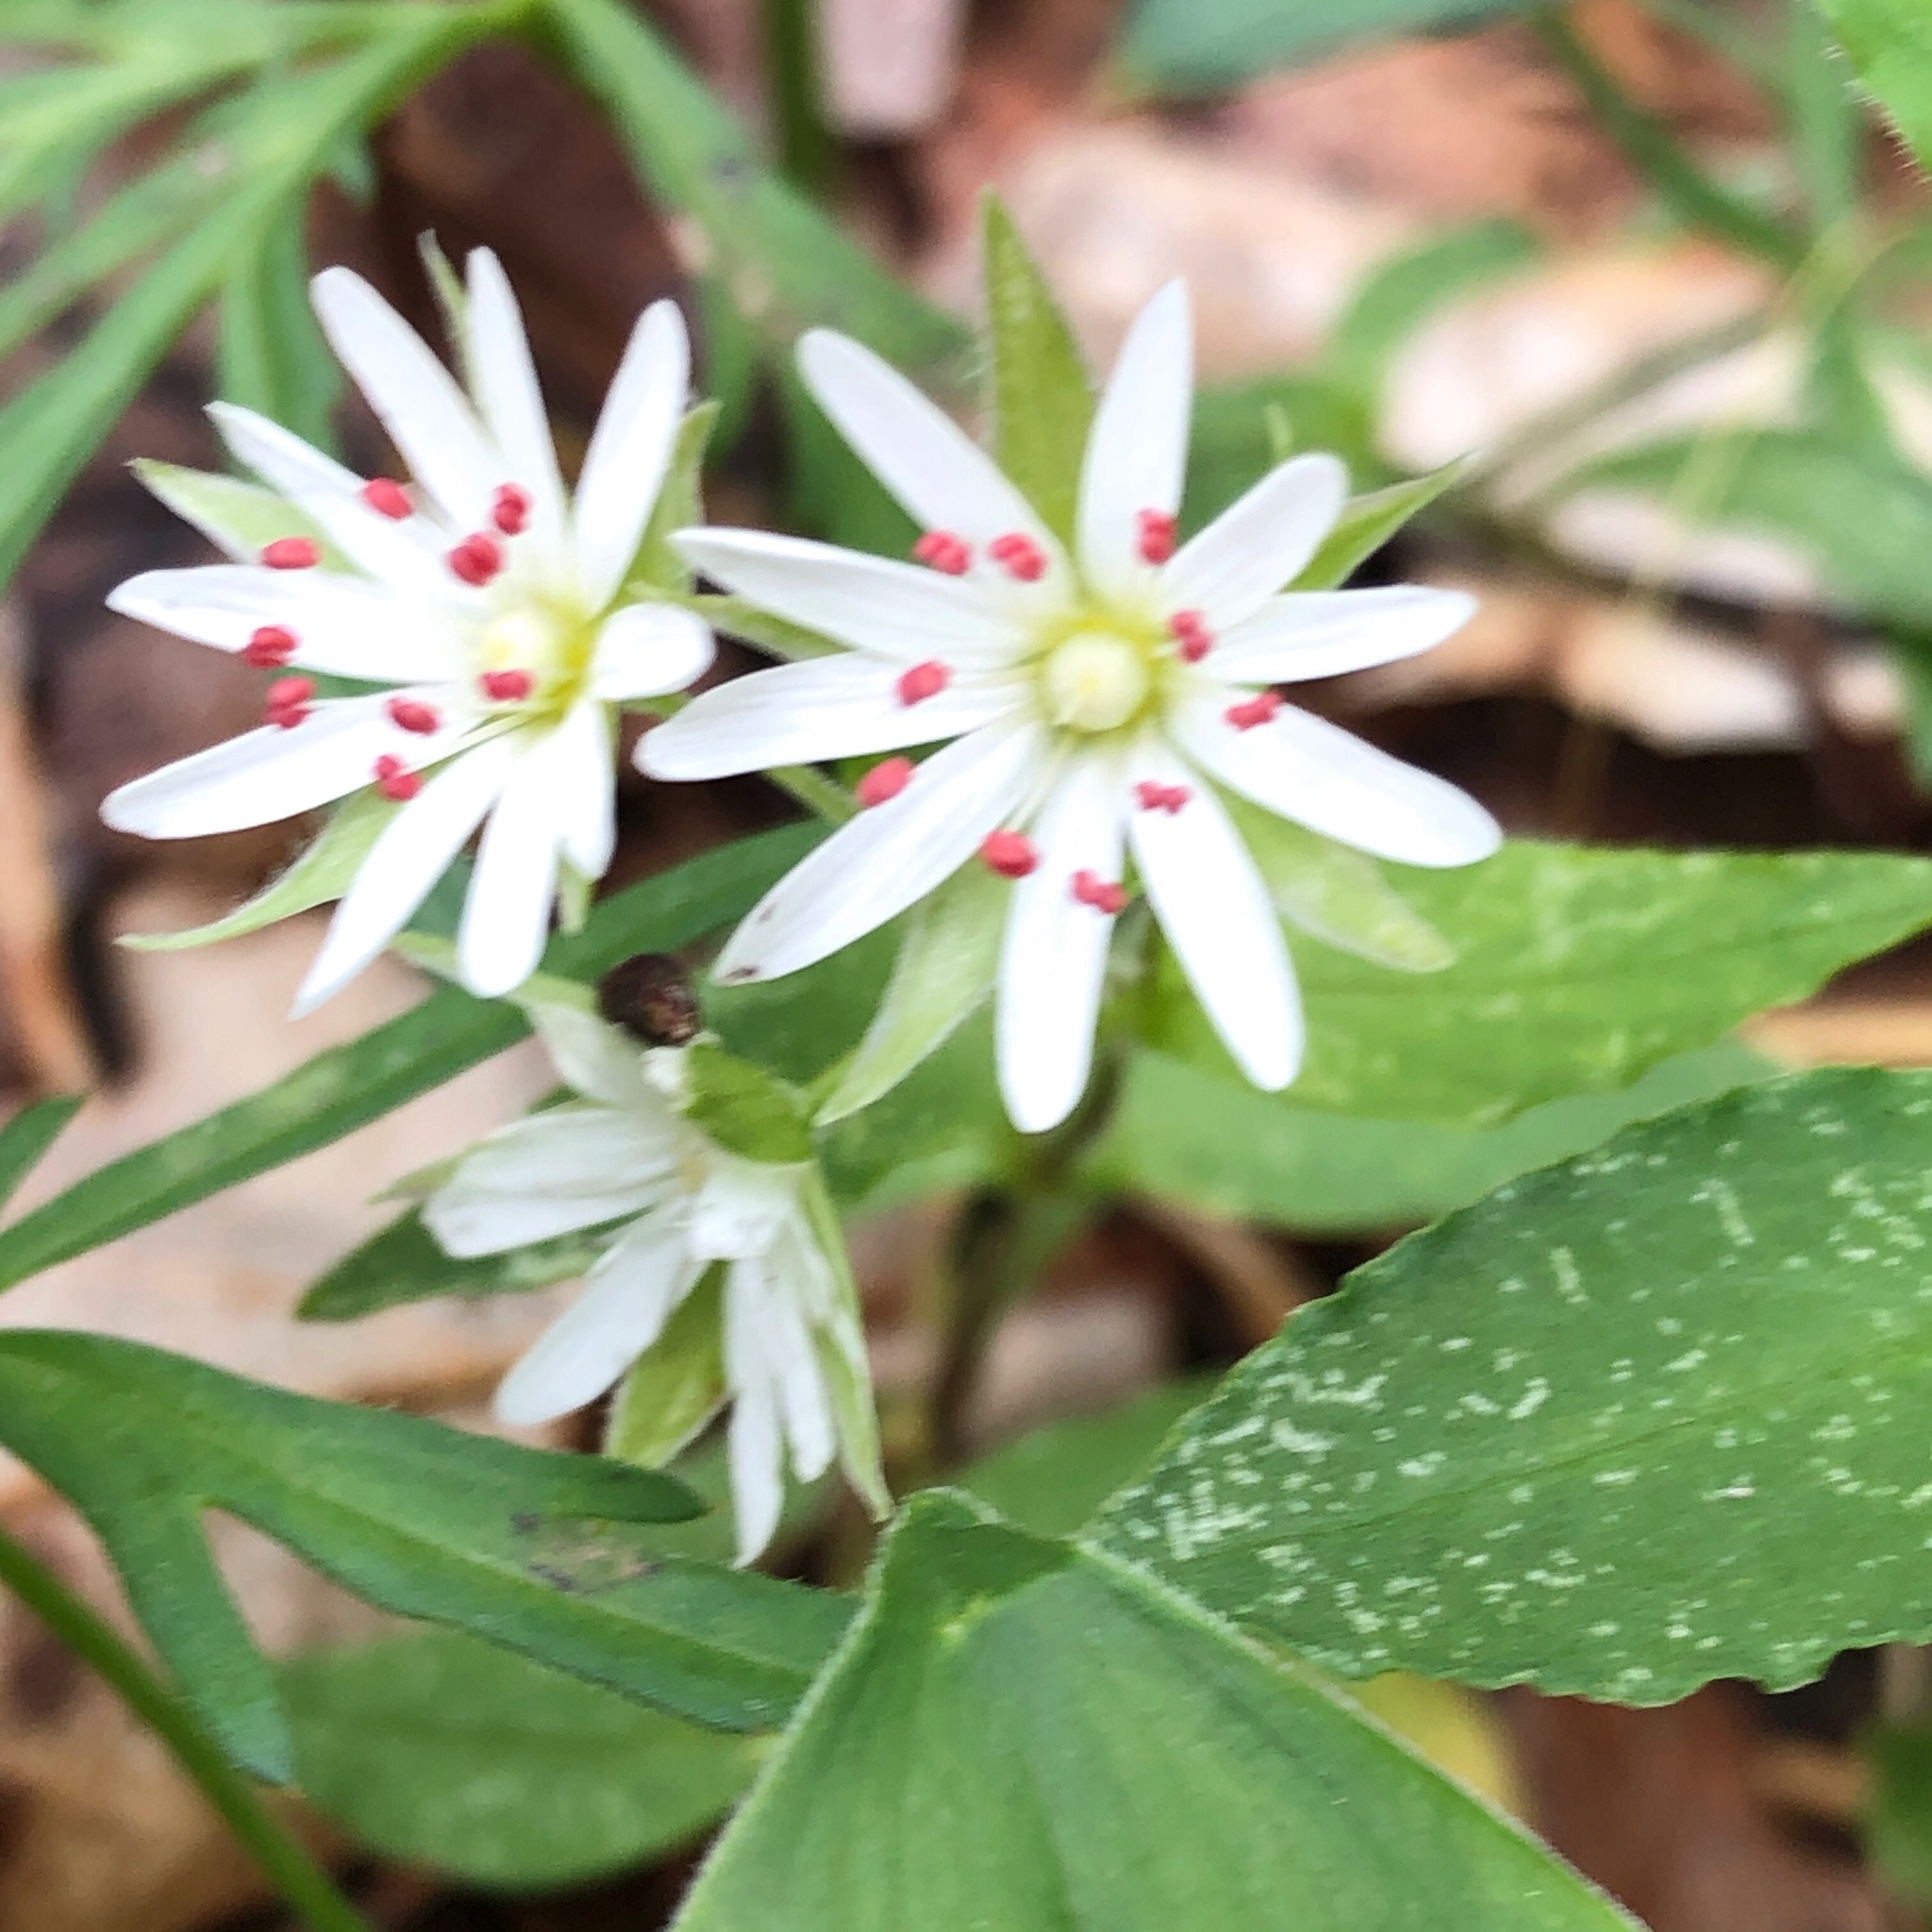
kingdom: Plantae
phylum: Tracheophyta
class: Magnoliopsida
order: Caryophyllales
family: Caryophyllaceae
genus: Stellaria
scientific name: Stellaria pubera
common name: Star chickweed
